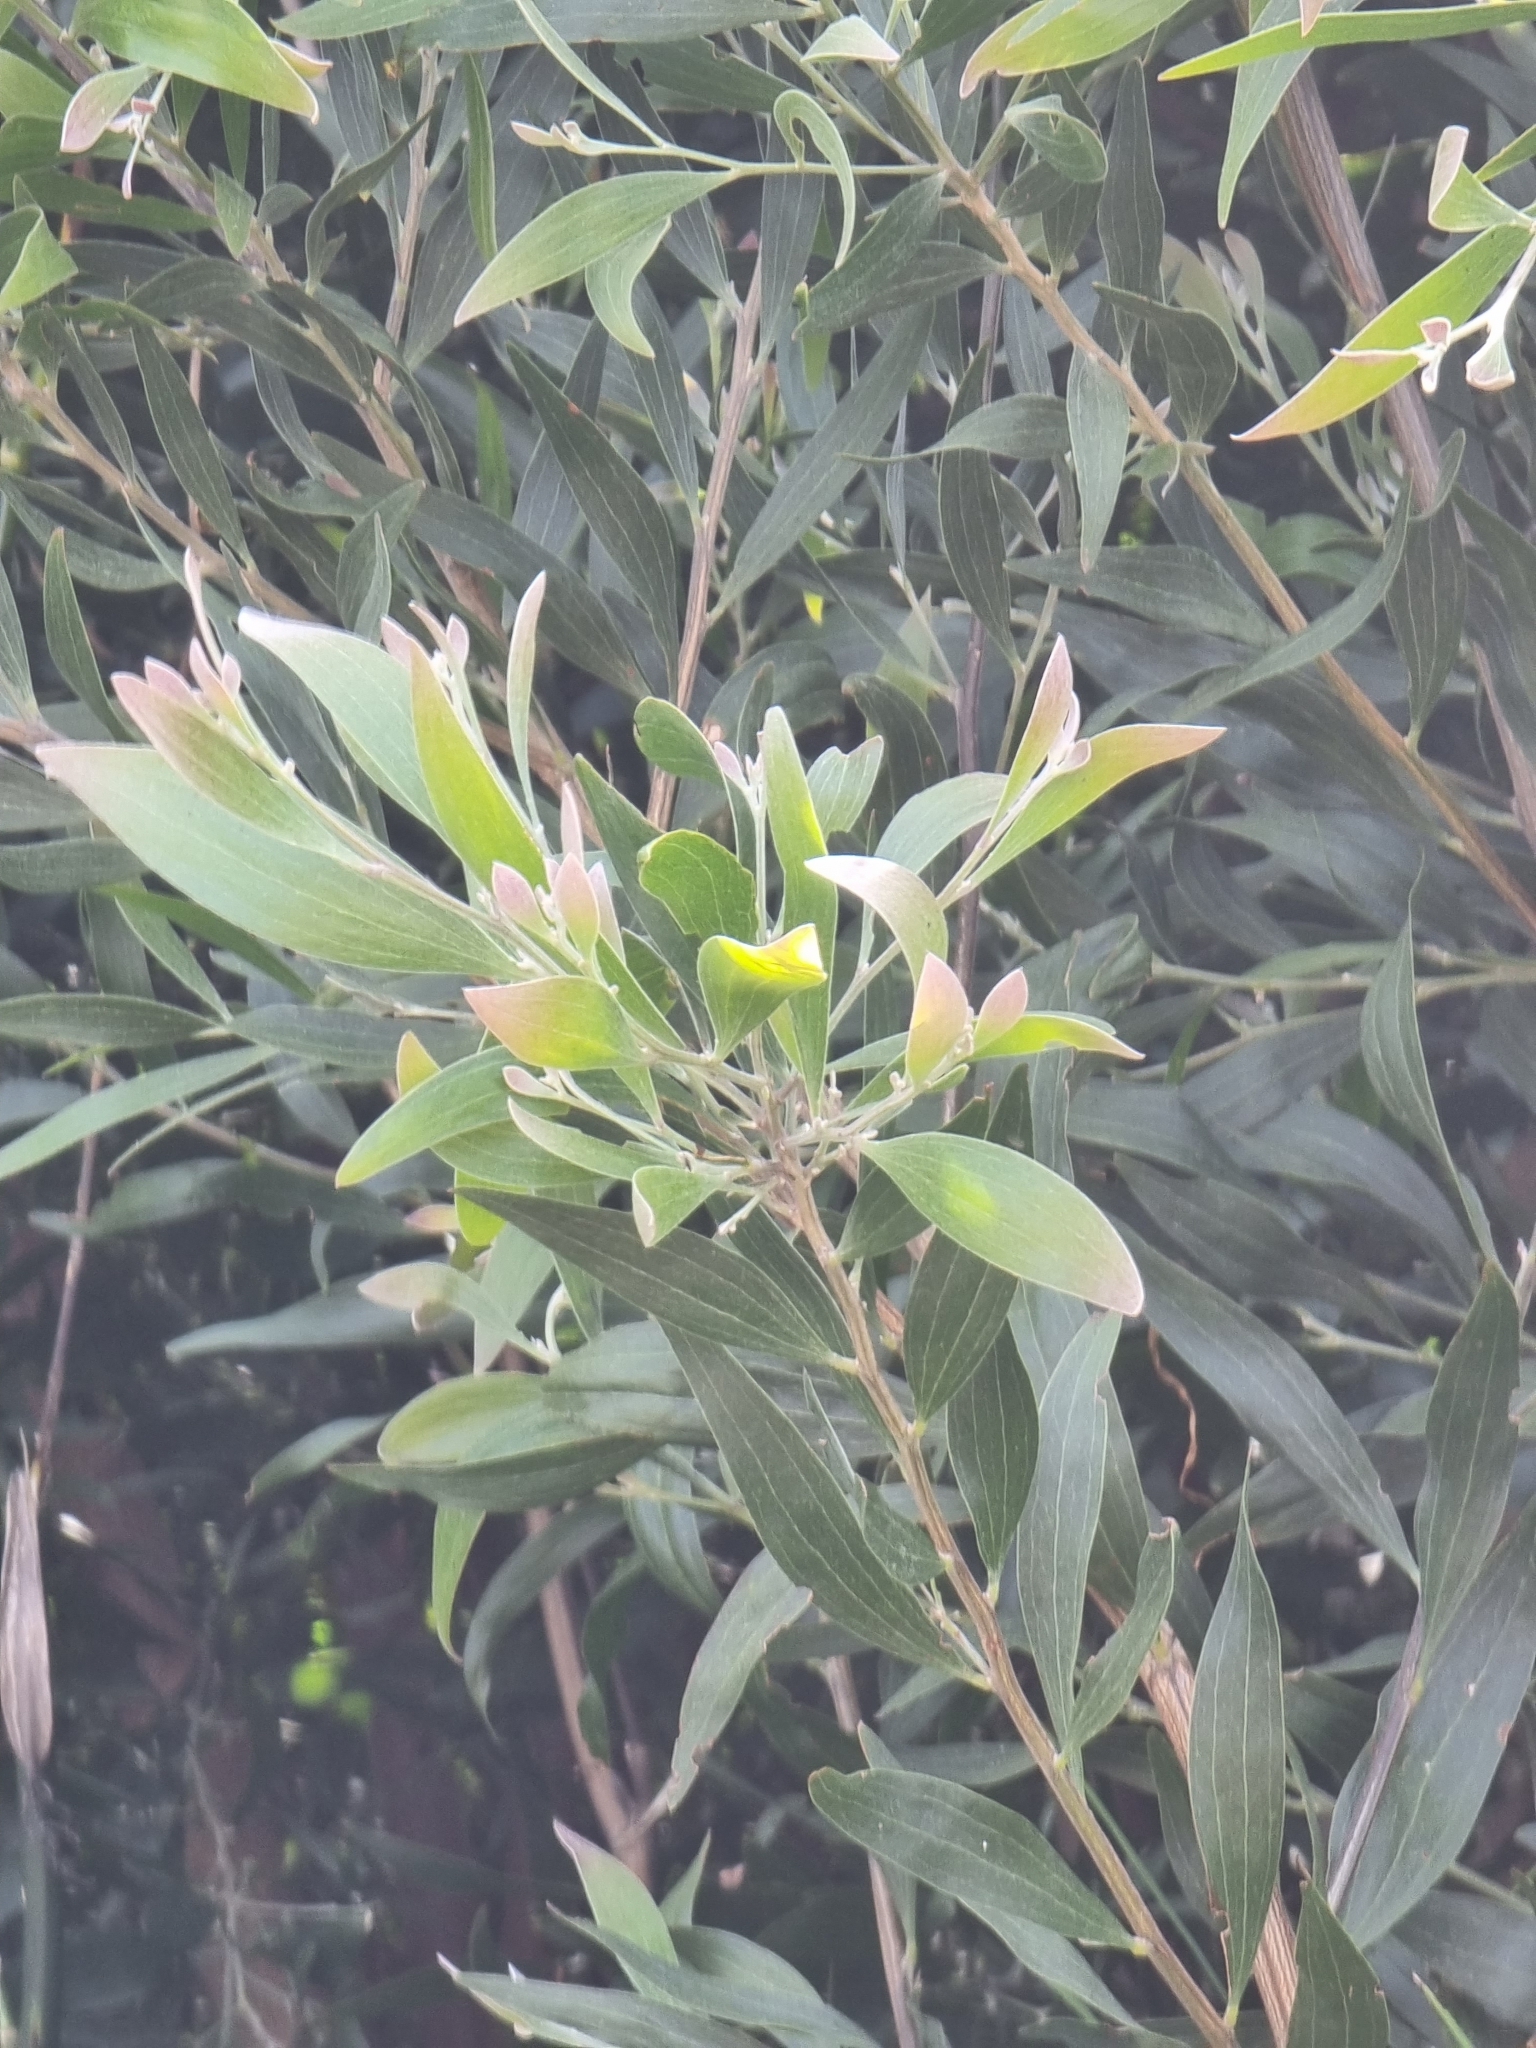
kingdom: Plantae
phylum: Tracheophyta
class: Magnoliopsida
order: Fabales
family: Fabaceae
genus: Acacia
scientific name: Acacia melanoxylon
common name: Blackwood
